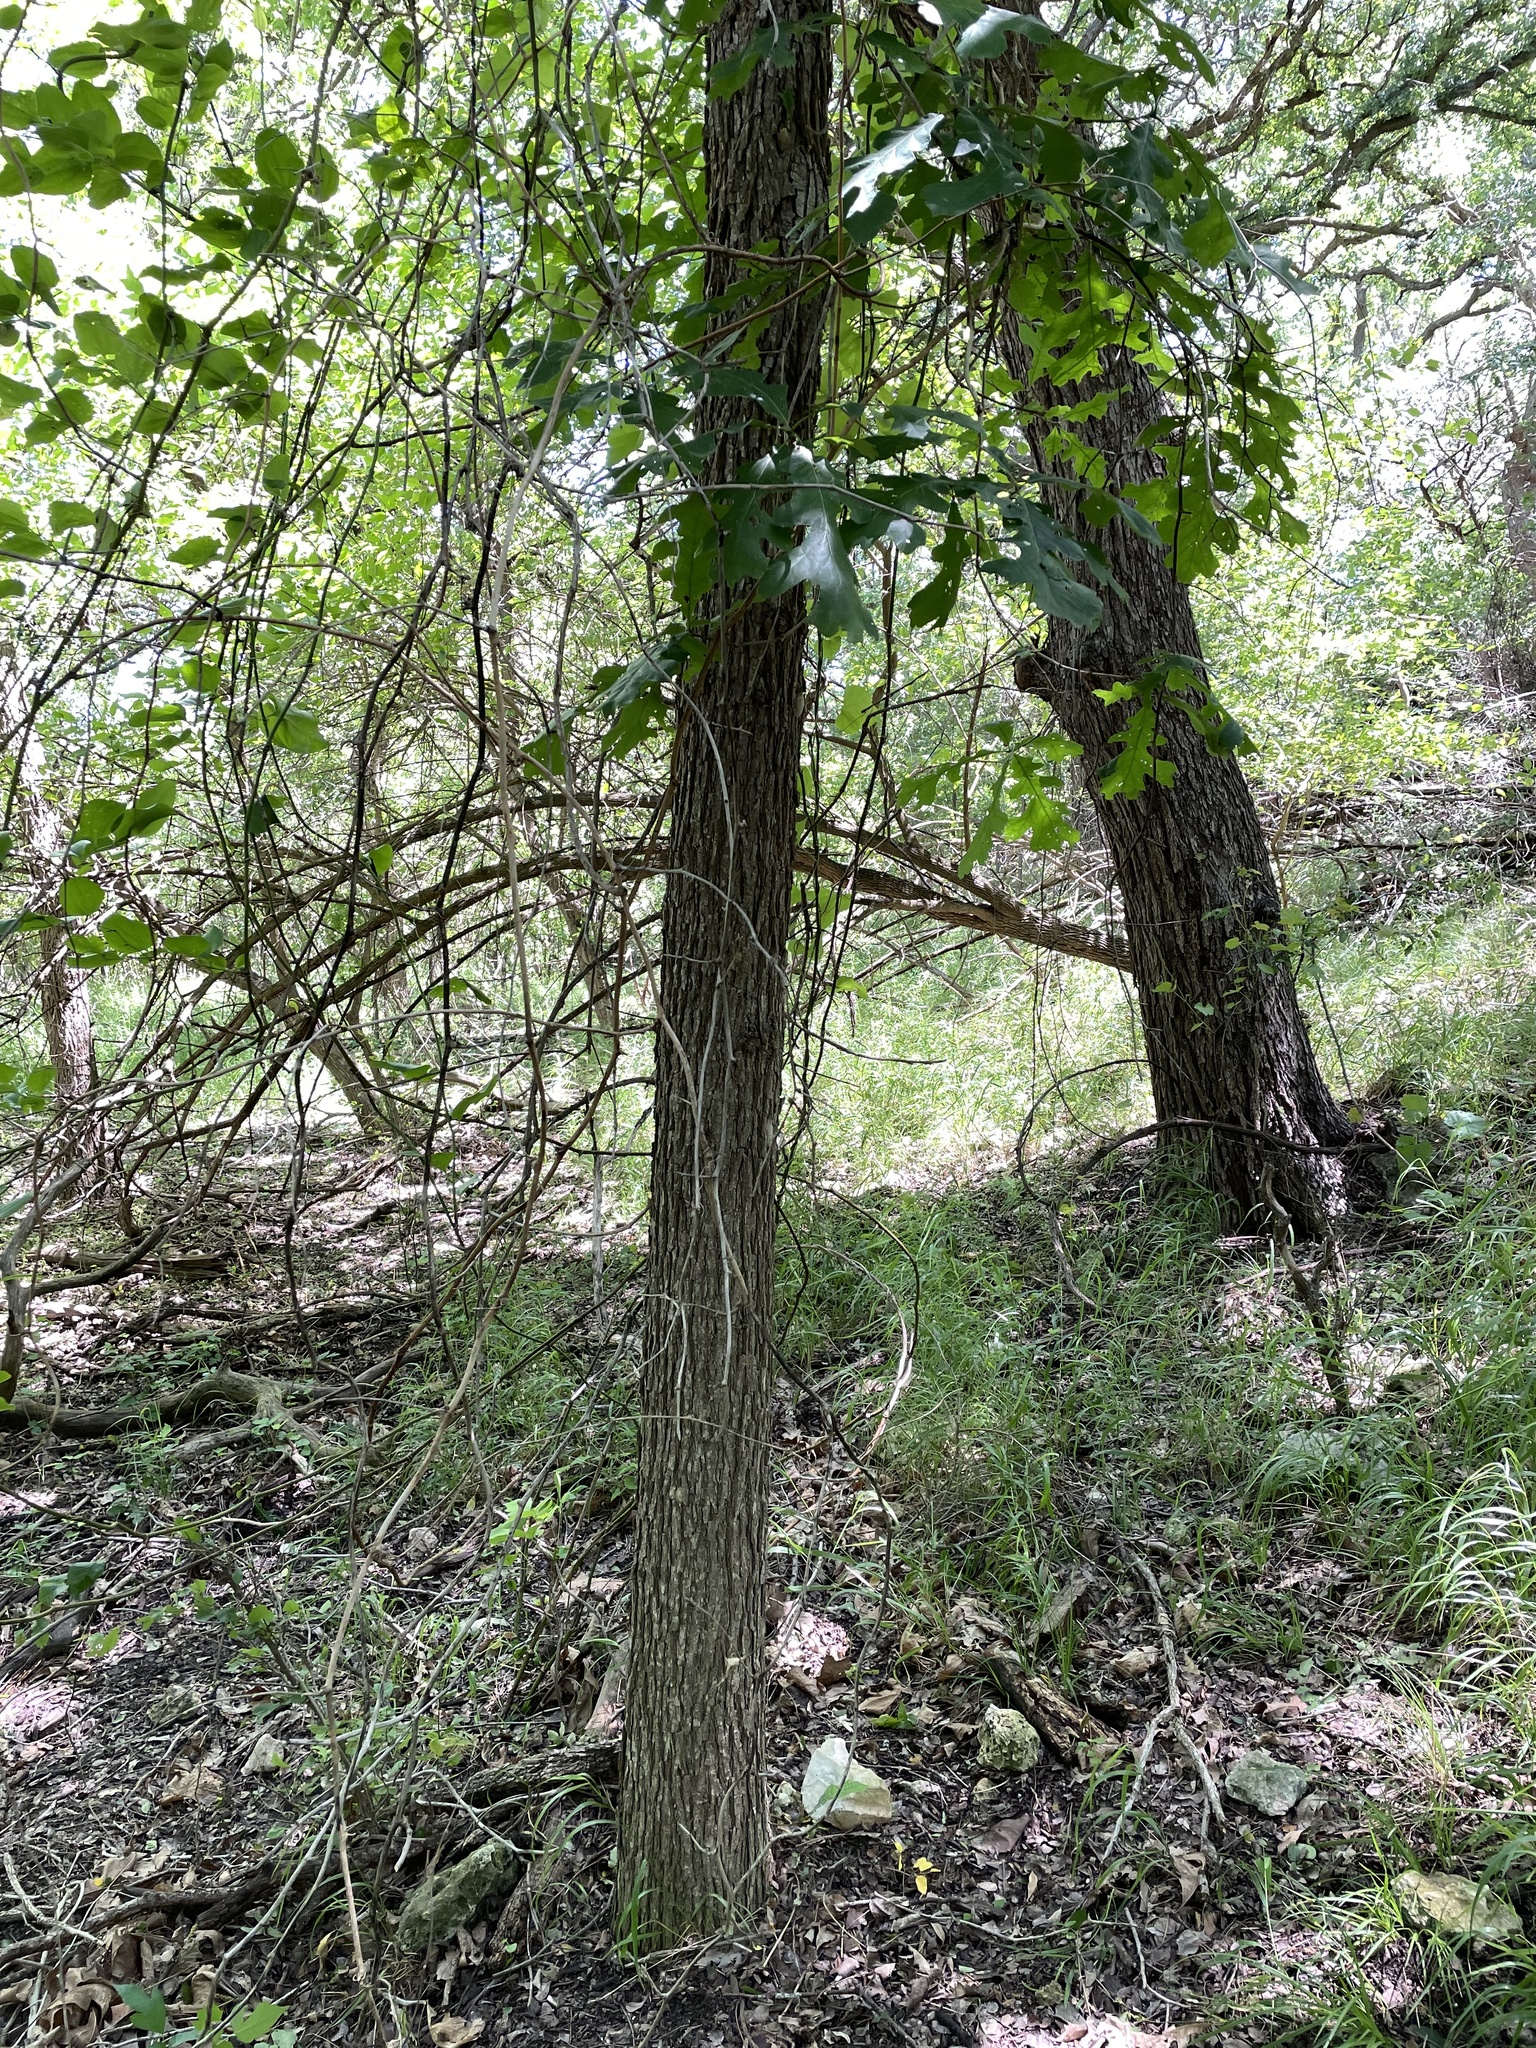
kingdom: Plantae
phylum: Tracheophyta
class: Magnoliopsida
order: Fagales
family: Fagaceae
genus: Quercus
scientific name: Quercus macrocarpa
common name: Bur oak
